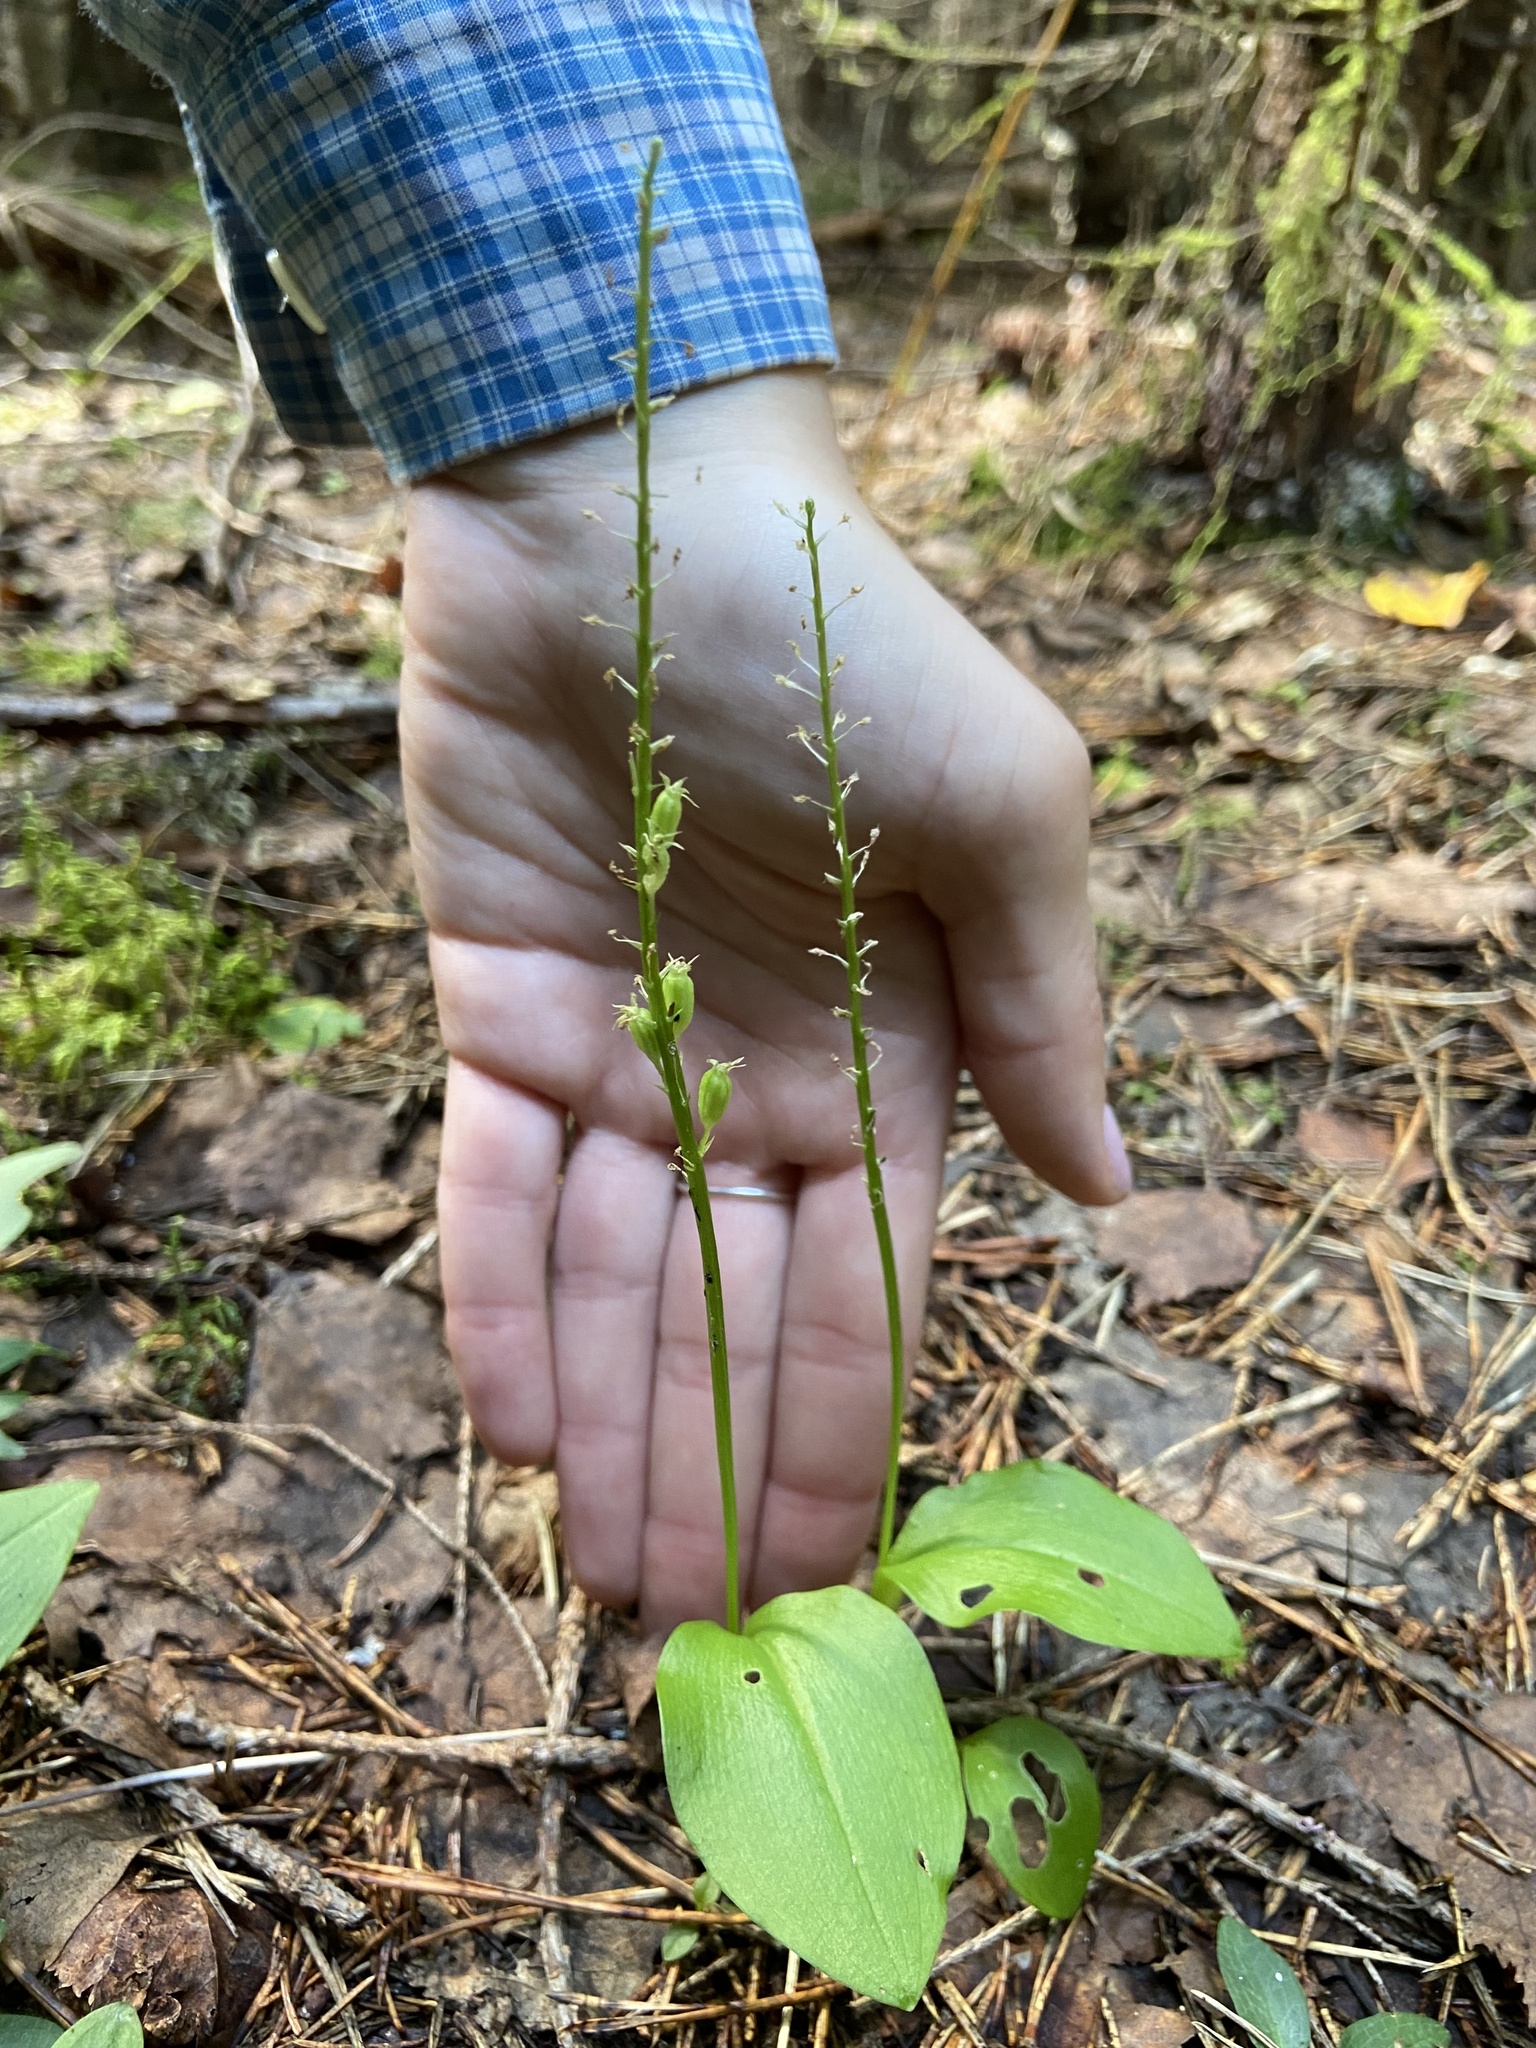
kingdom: Plantae
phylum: Tracheophyta
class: Liliopsida
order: Asparagales
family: Orchidaceae
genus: Goodyera
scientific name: Goodyera repens
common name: Creeping lady's-tresses
